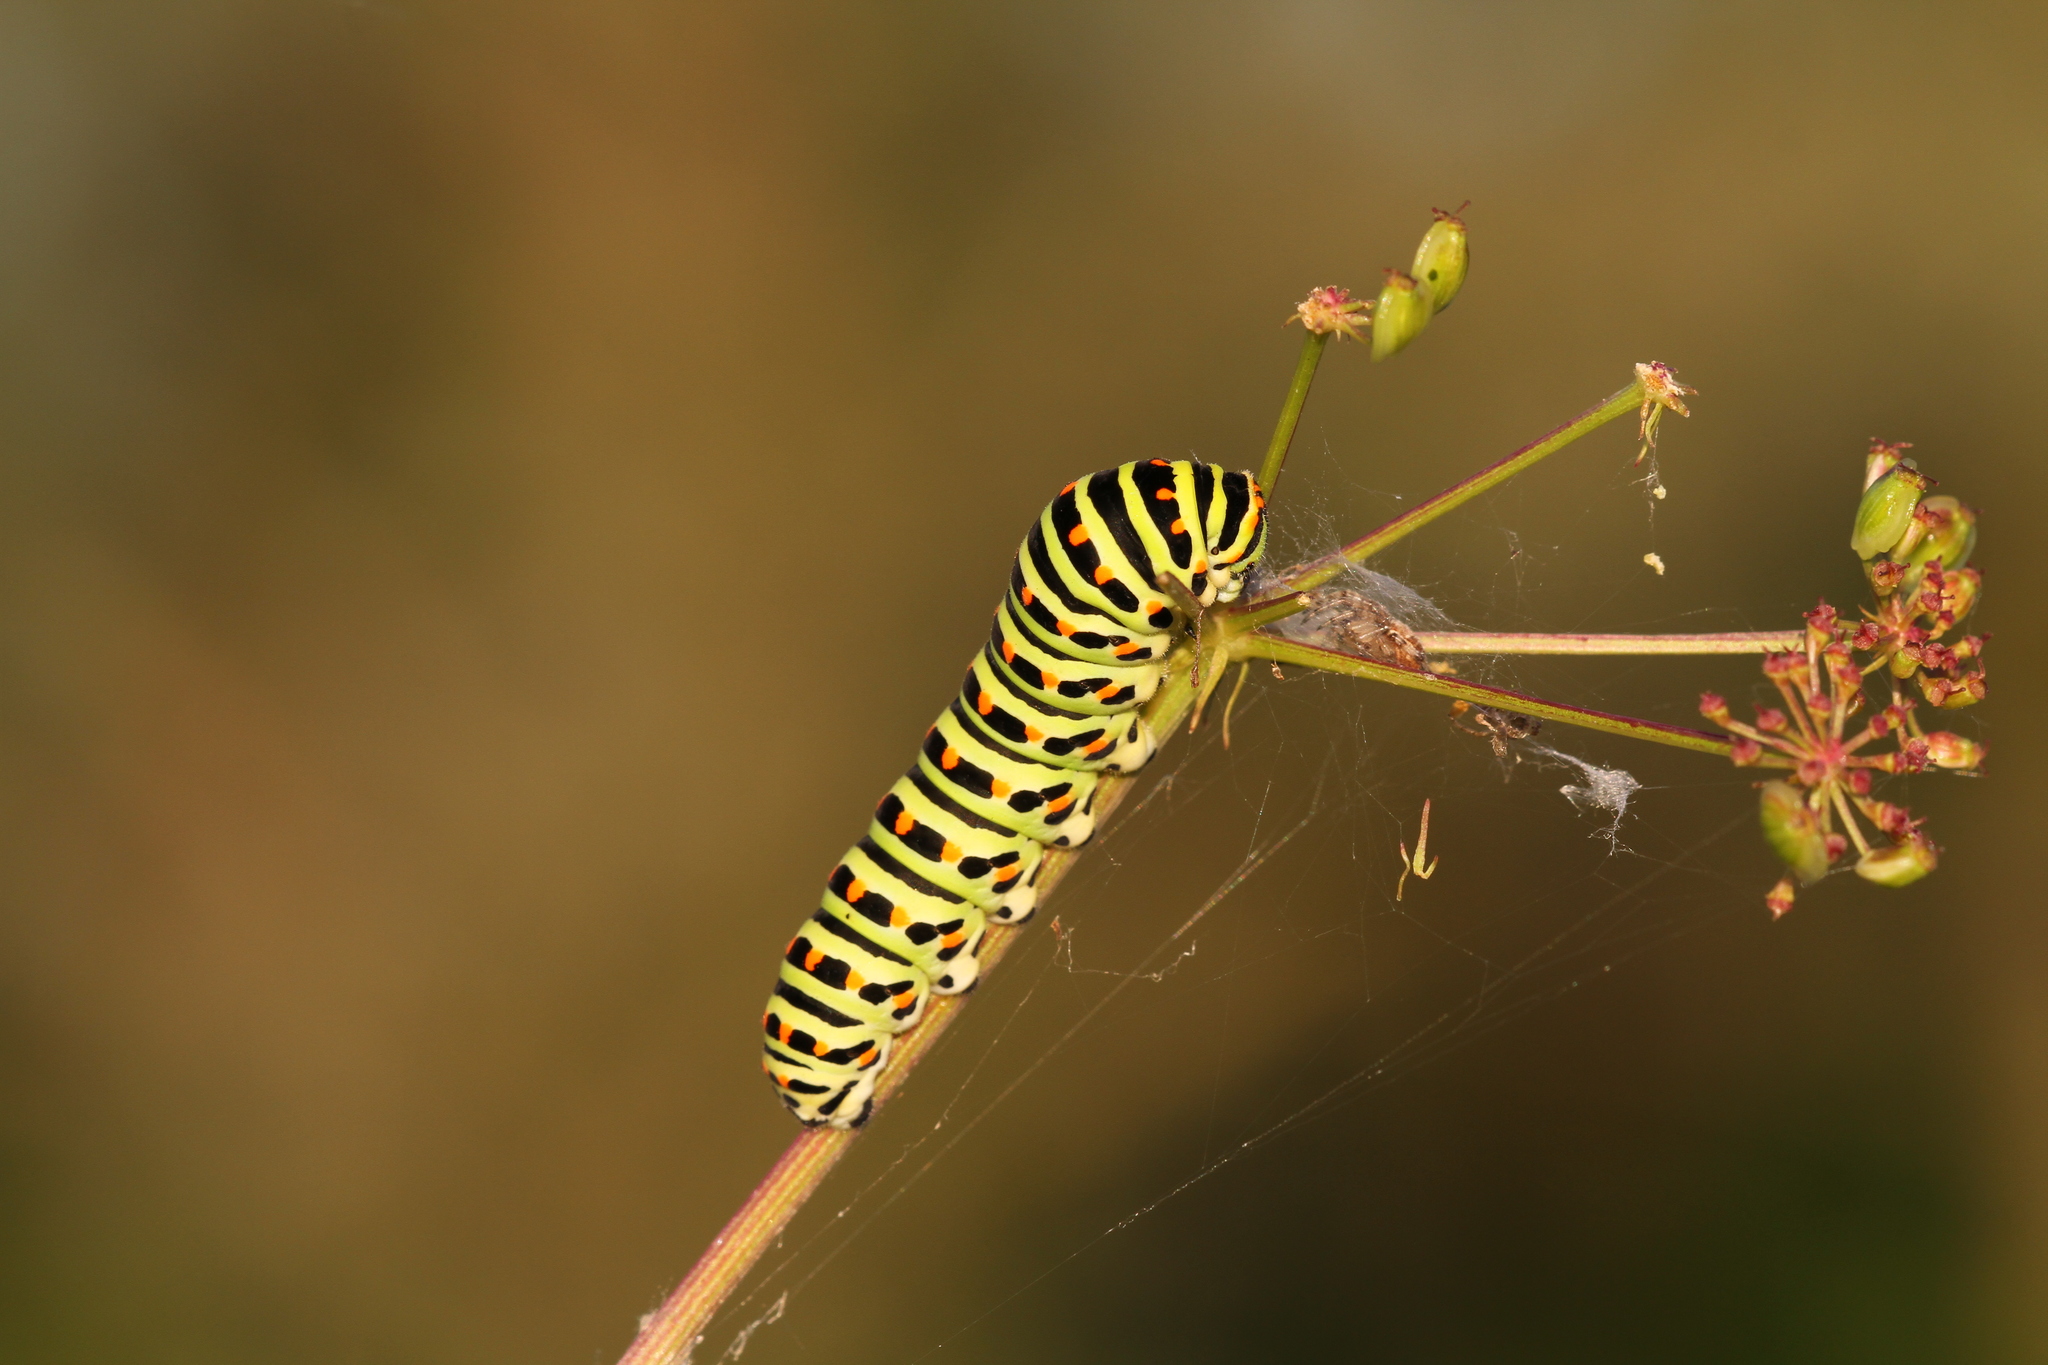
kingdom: Animalia
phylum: Arthropoda
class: Insecta
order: Lepidoptera
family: Papilionidae
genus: Papilio
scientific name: Papilio machaon
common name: Swallowtail
